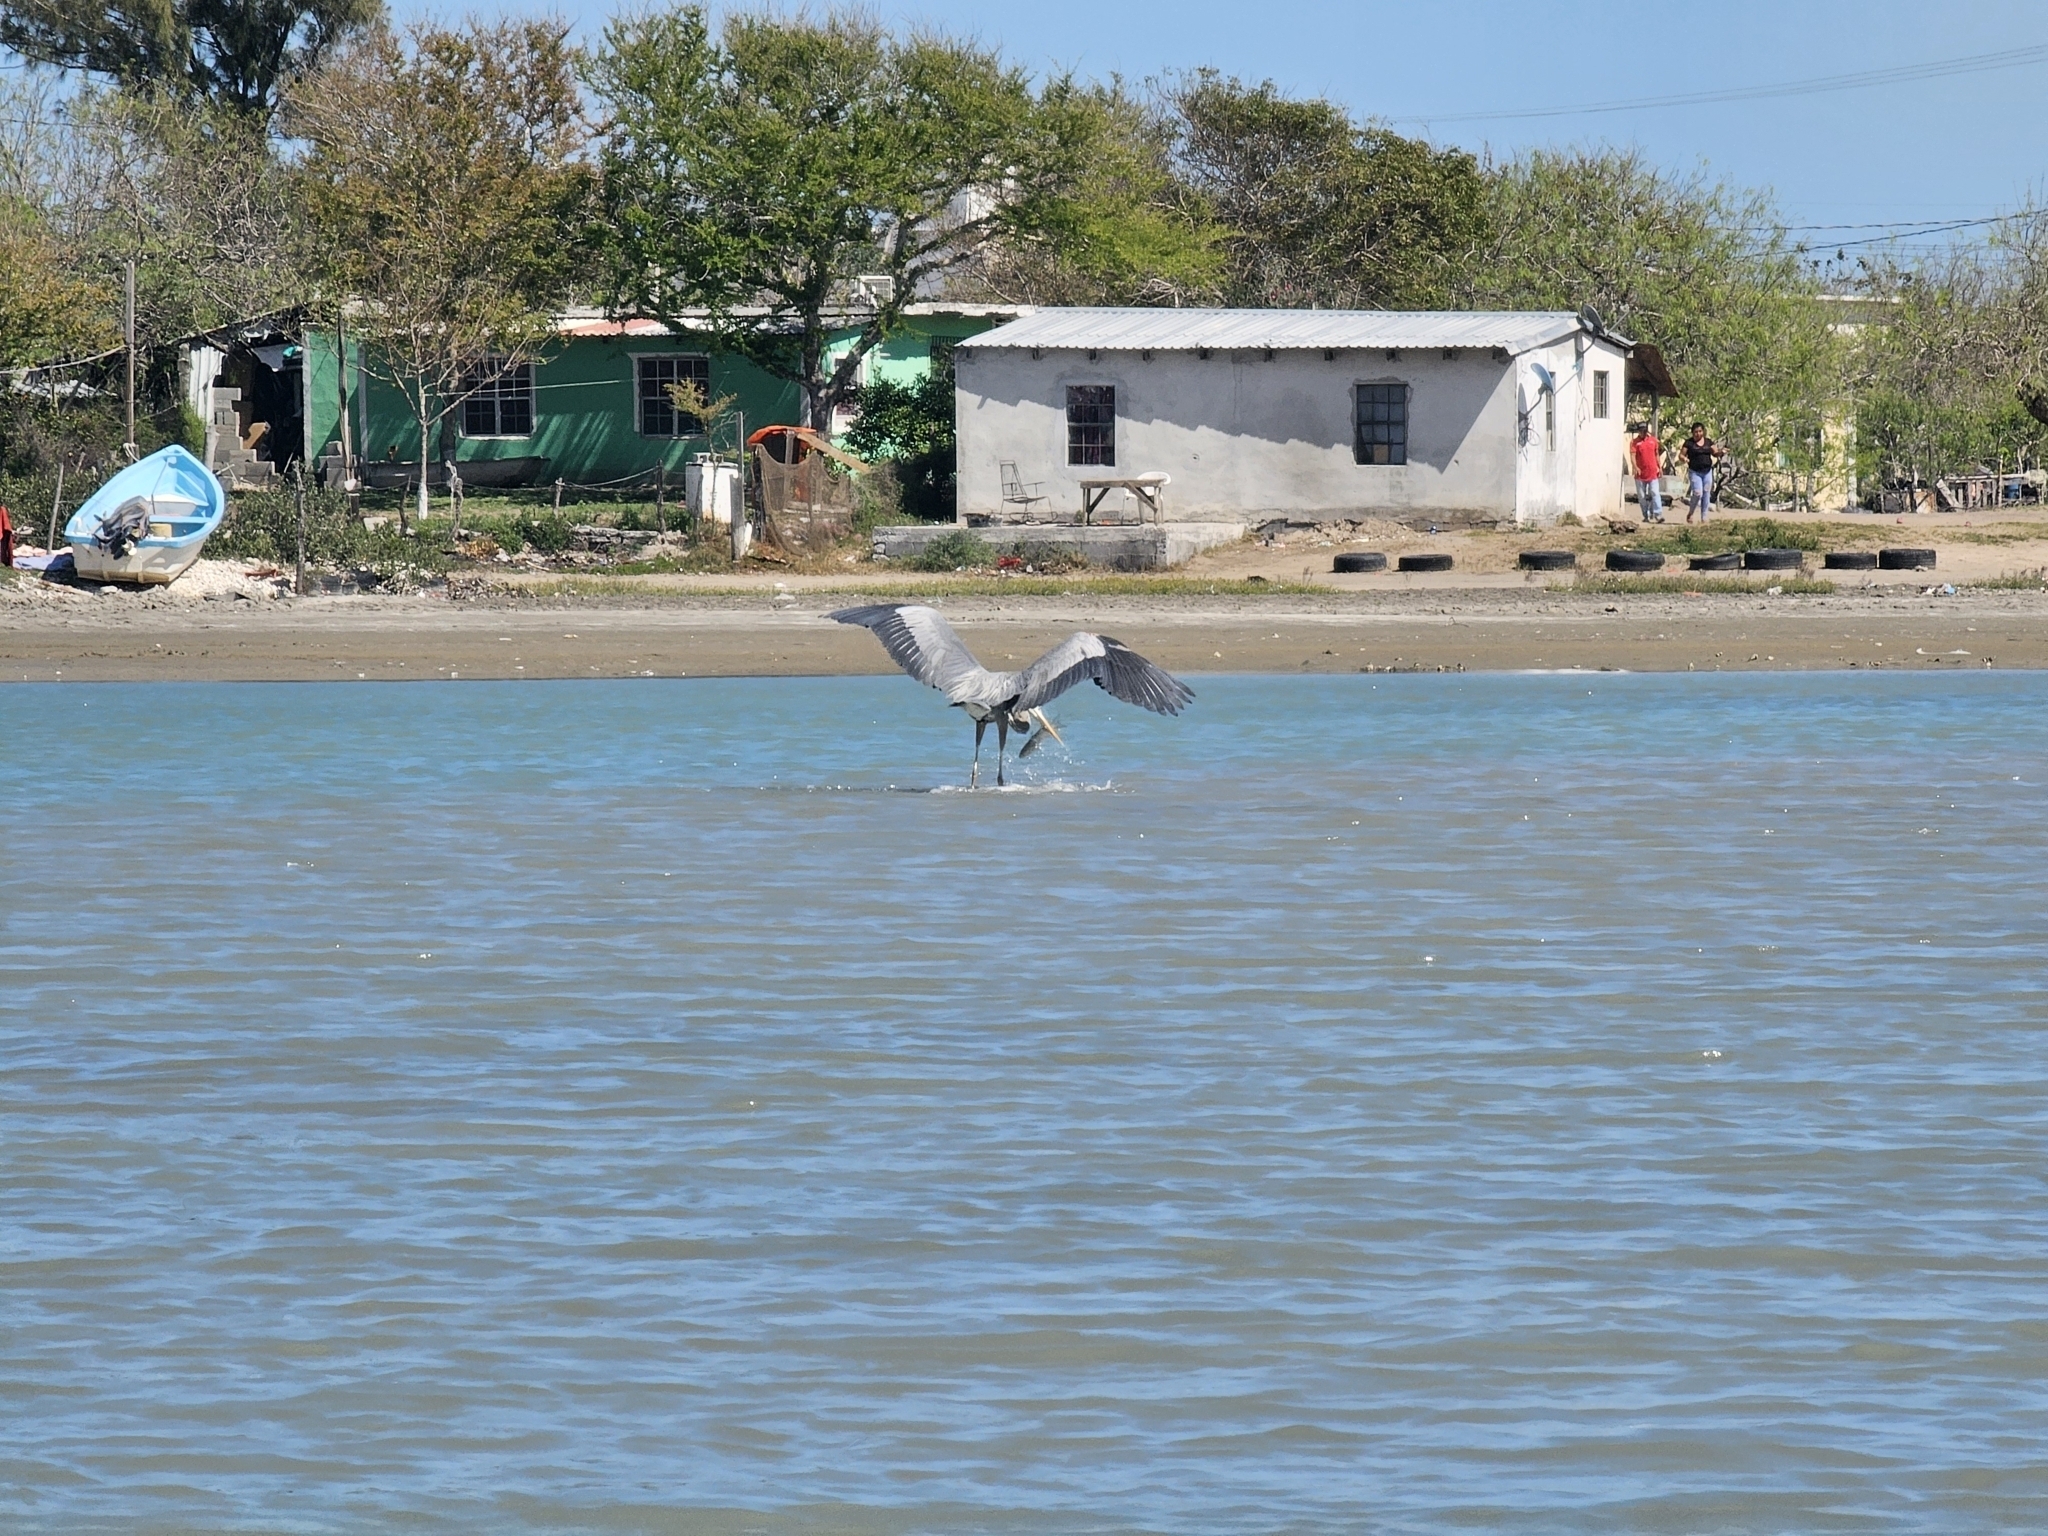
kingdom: Animalia
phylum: Chordata
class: Aves
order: Pelecaniformes
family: Ardeidae
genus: Ardea
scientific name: Ardea herodias
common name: Great blue heron
